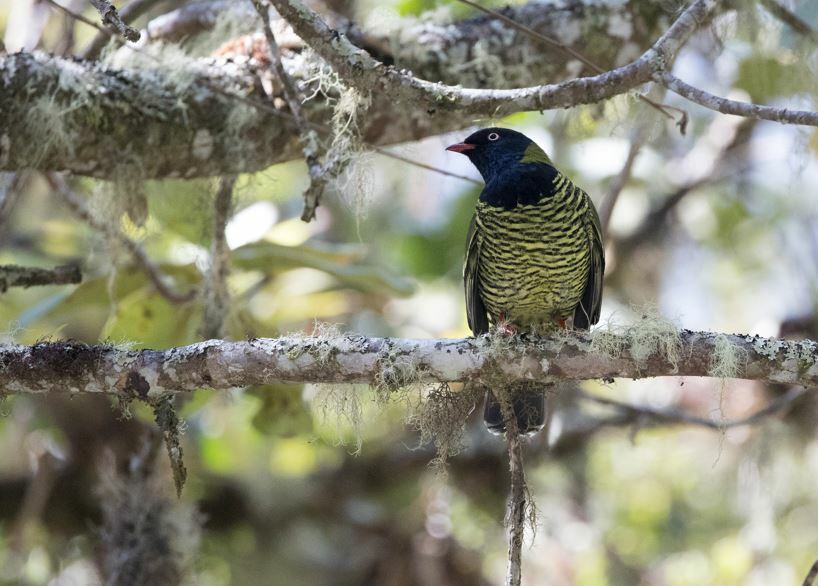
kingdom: Animalia
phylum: Chordata
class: Aves
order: Passeriformes
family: Cotingidae
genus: Pipreola
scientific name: Pipreola arcuata
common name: Barred fruiteater
